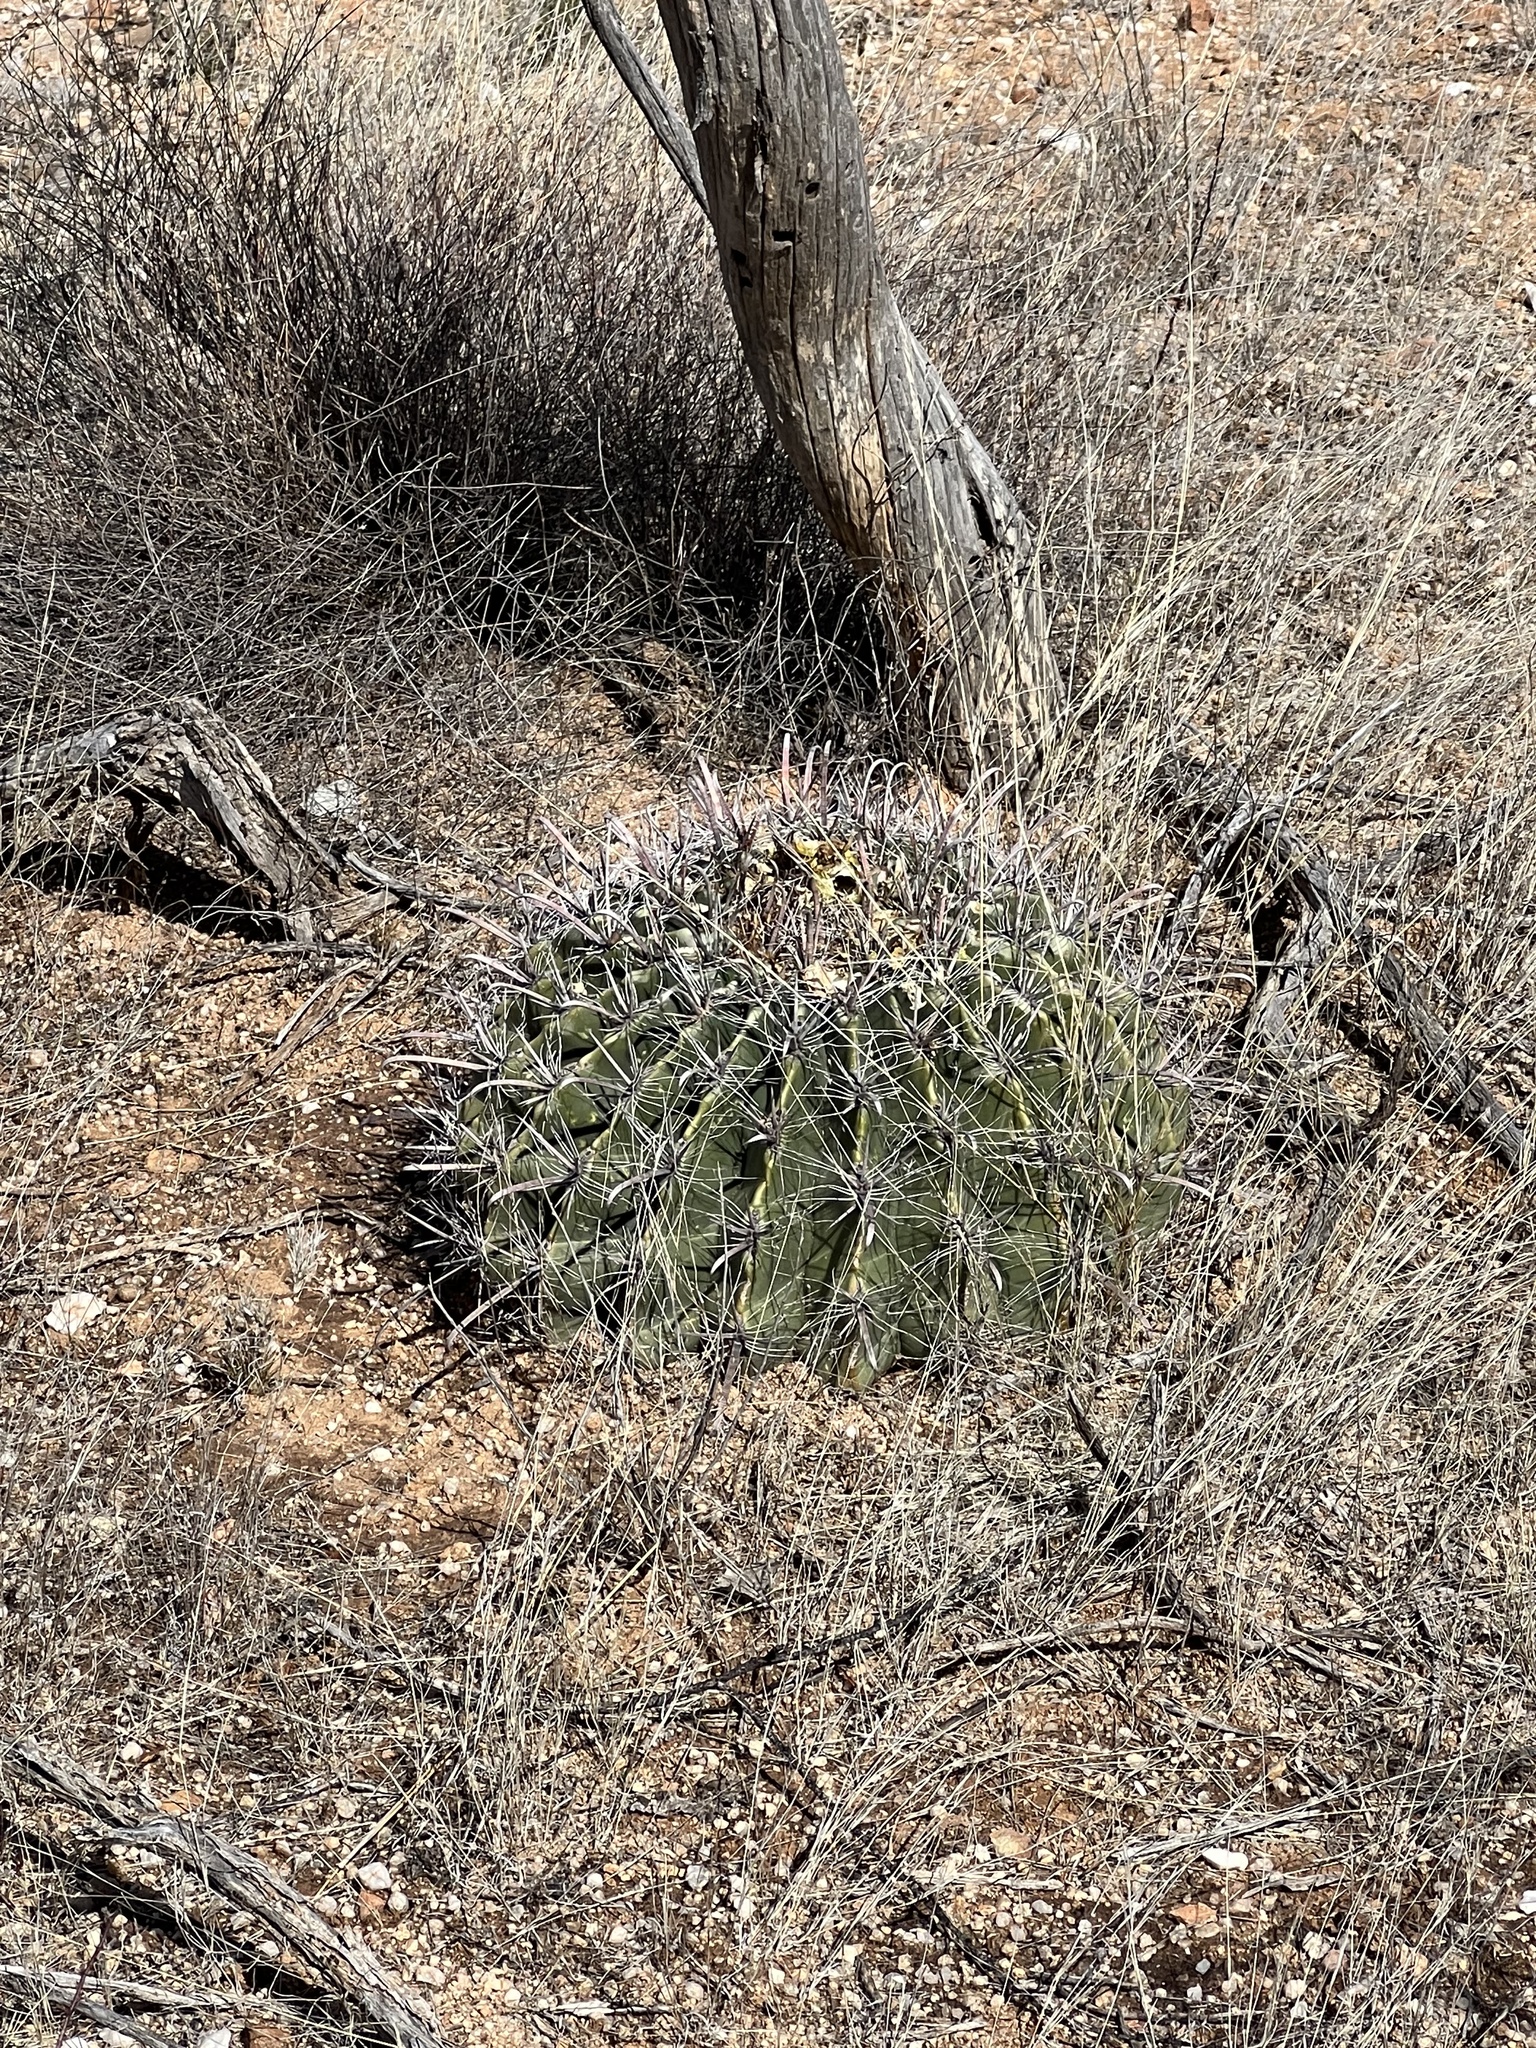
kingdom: Plantae
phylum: Tracheophyta
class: Magnoliopsida
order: Caryophyllales
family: Cactaceae
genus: Ferocactus
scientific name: Ferocactus wislizeni
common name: Candy barrel cactus
